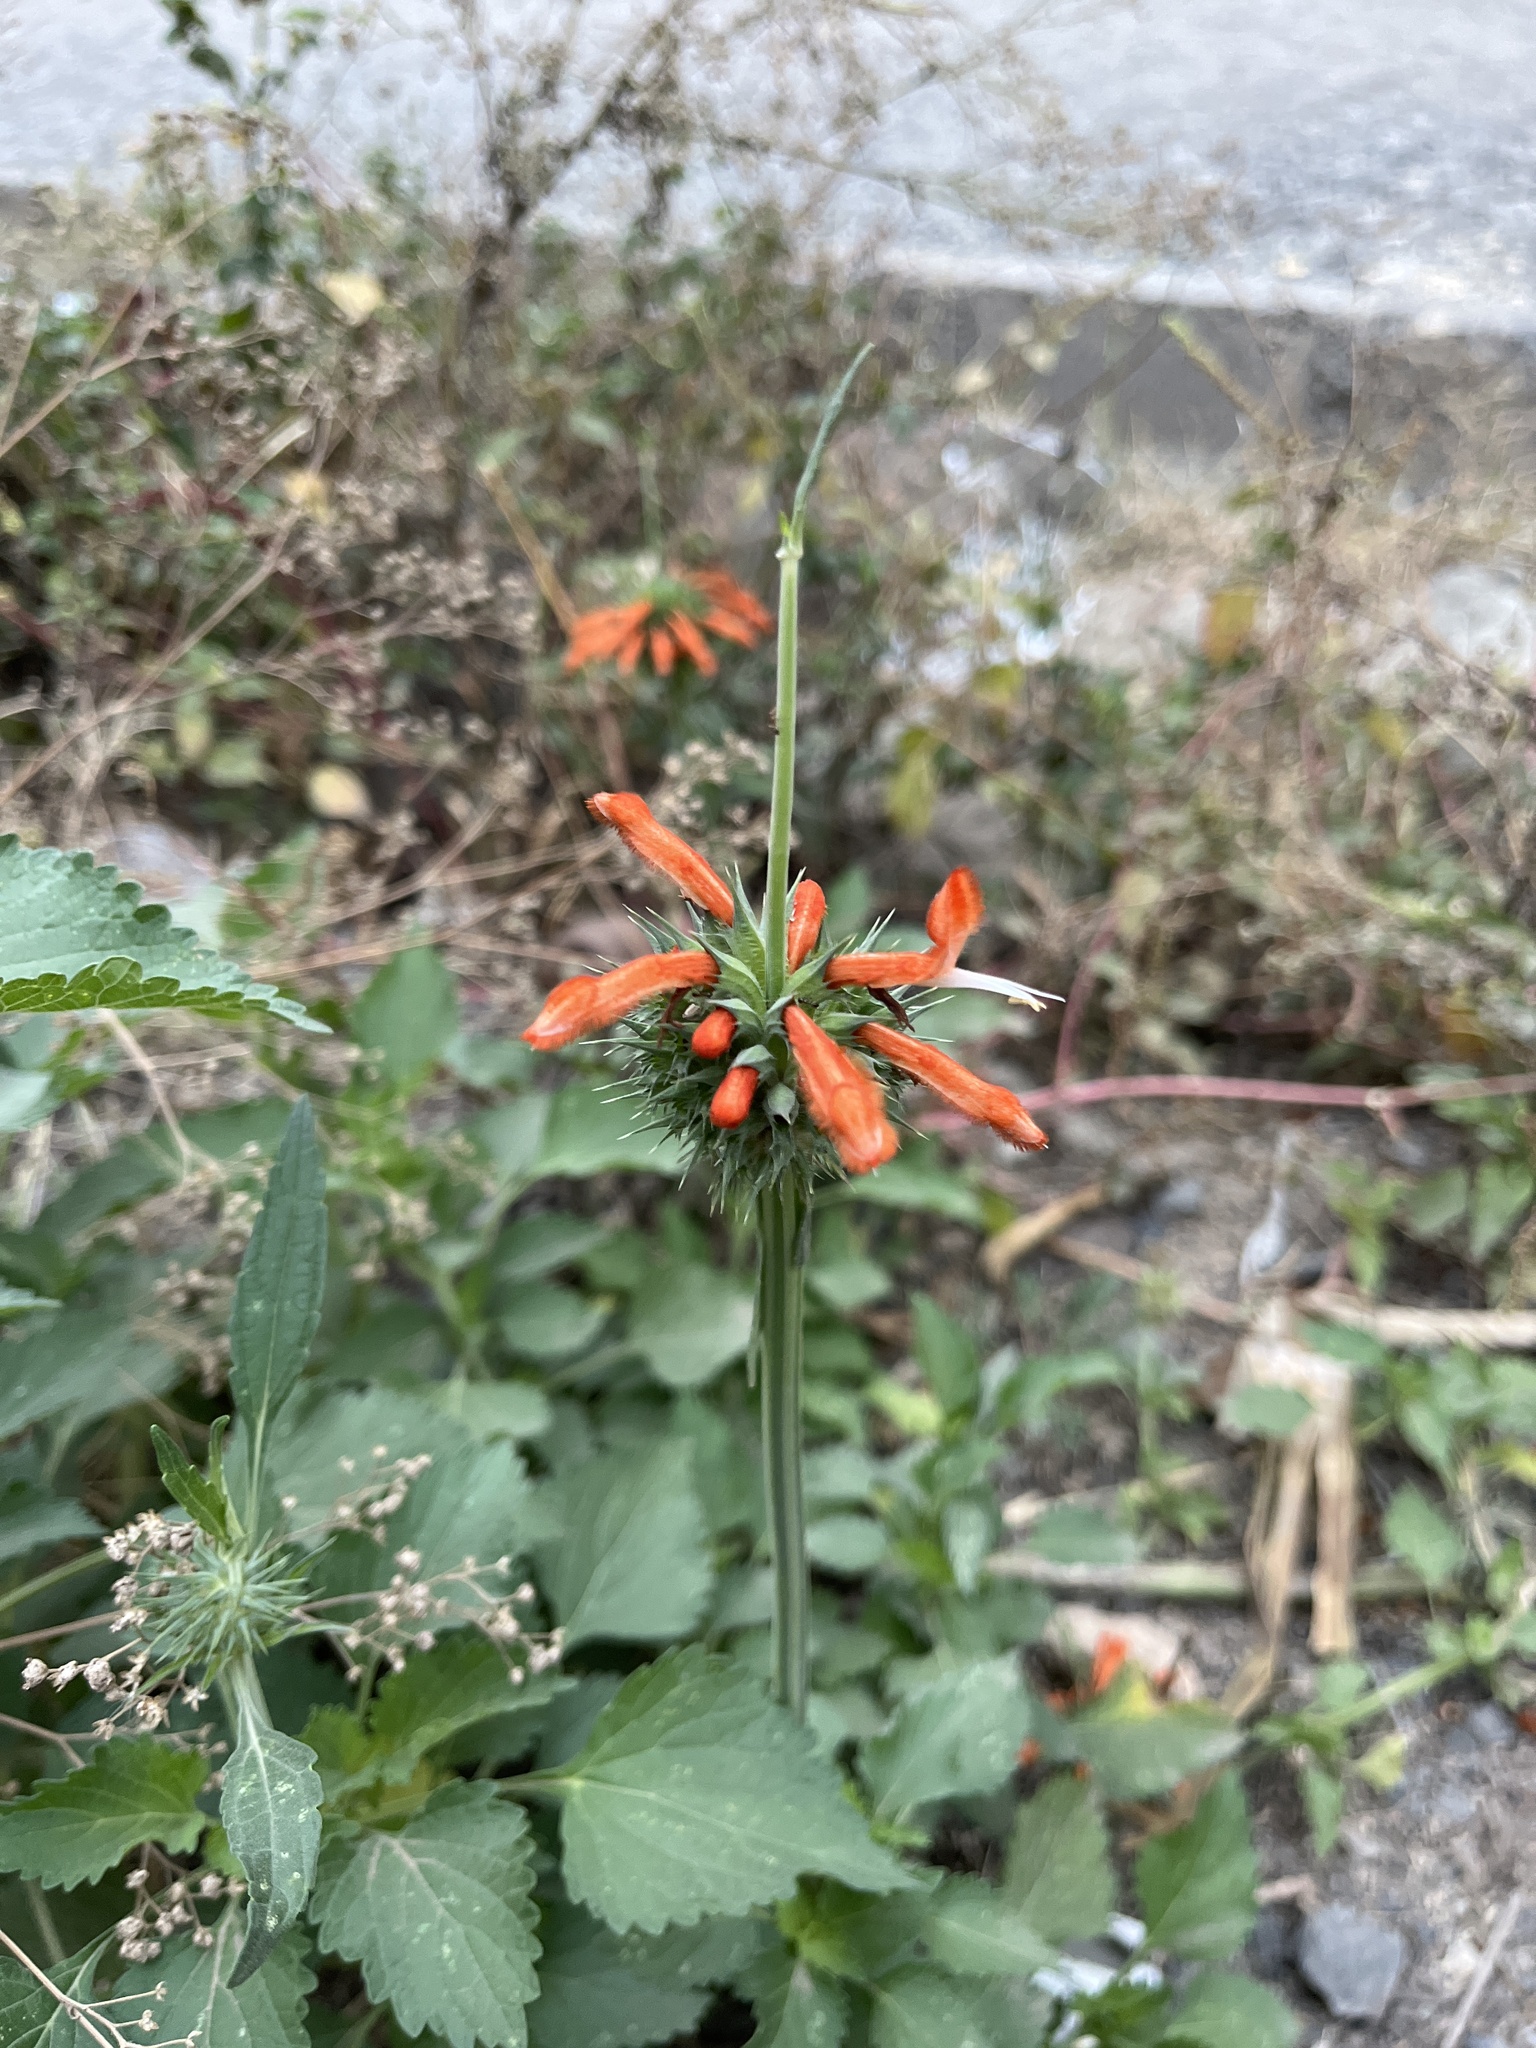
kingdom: Plantae
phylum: Tracheophyta
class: Magnoliopsida
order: Lamiales
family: Lamiaceae
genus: Leonotis
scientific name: Leonotis nepetifolia
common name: Christmas candlestick
